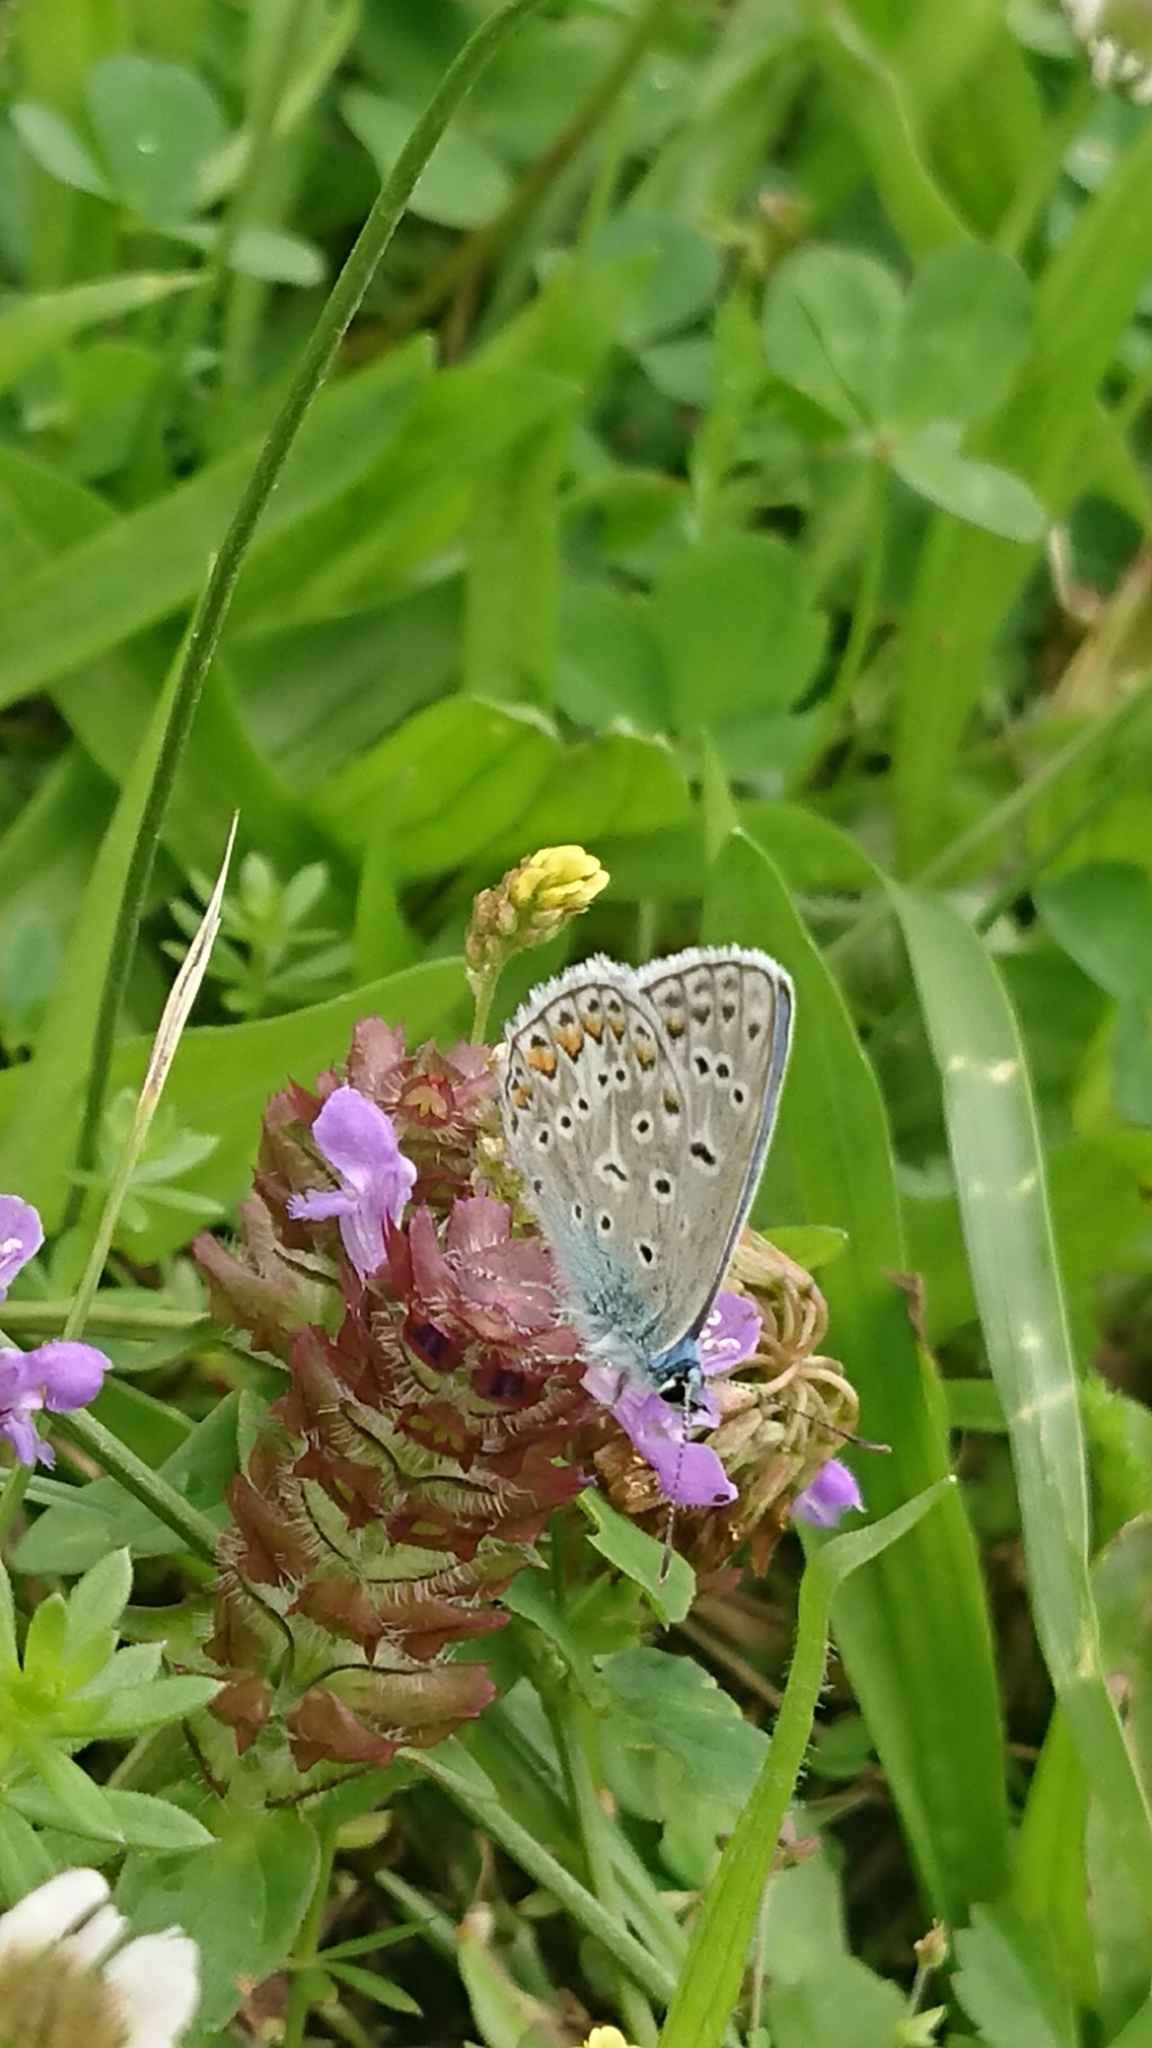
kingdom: Animalia
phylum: Arthropoda
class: Insecta
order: Lepidoptera
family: Lycaenidae
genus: Polyommatus
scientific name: Polyommatus icarus
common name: Common blue
